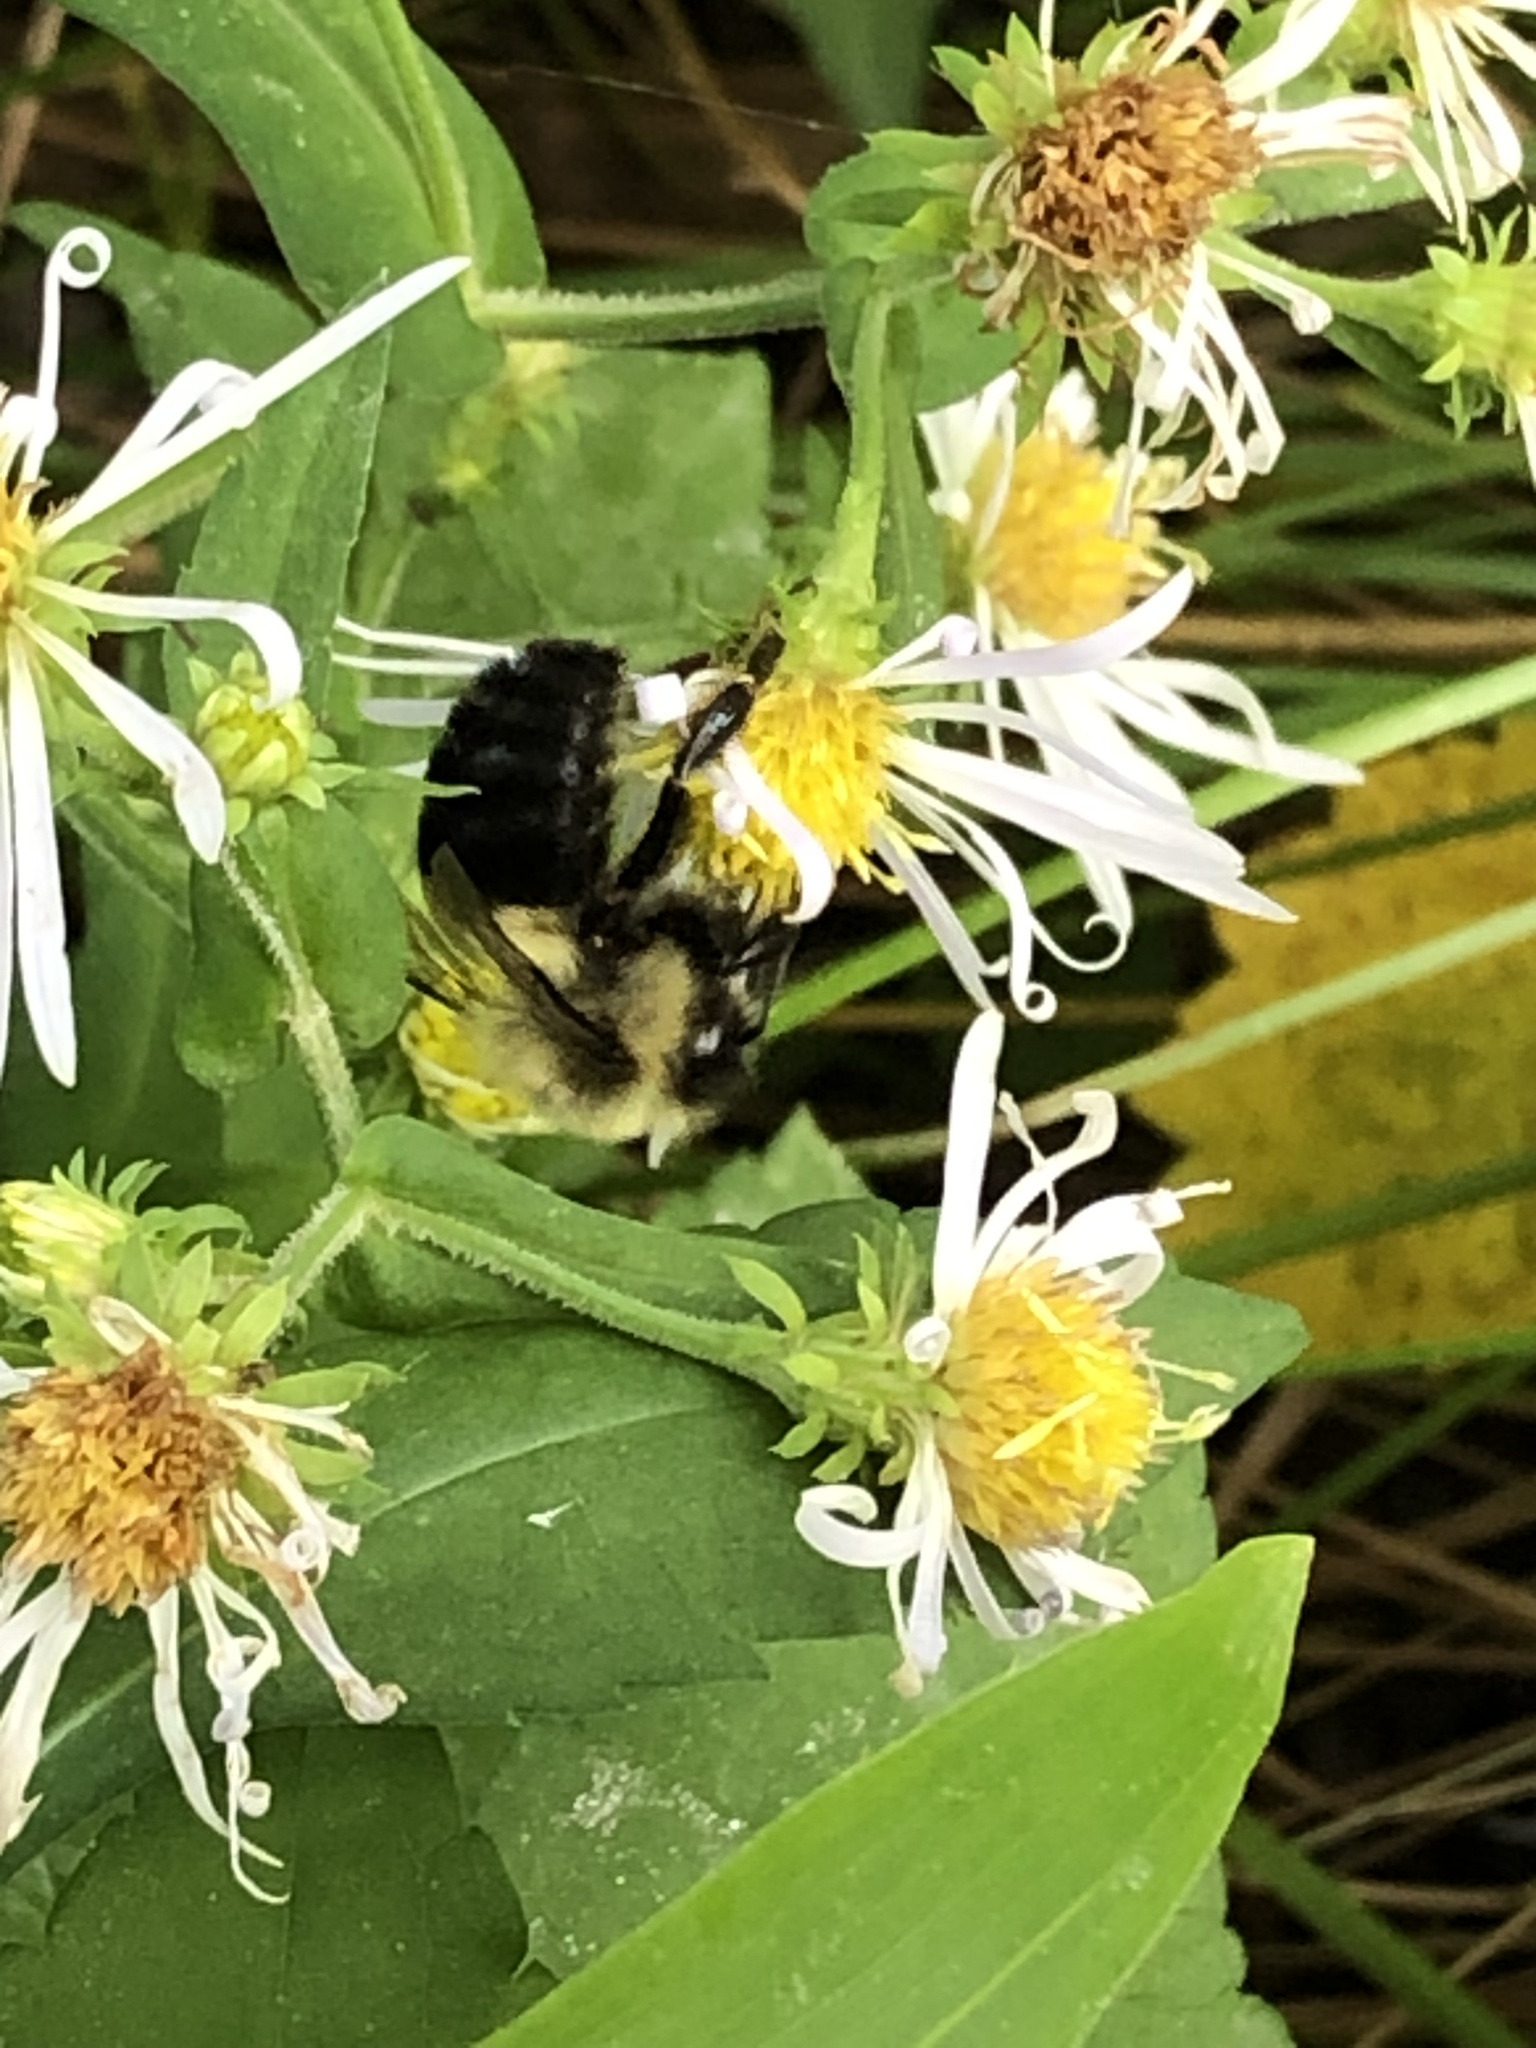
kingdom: Animalia
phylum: Arthropoda
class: Insecta
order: Hymenoptera
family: Apidae
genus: Bombus
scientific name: Bombus impatiens
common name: Common eastern bumble bee
